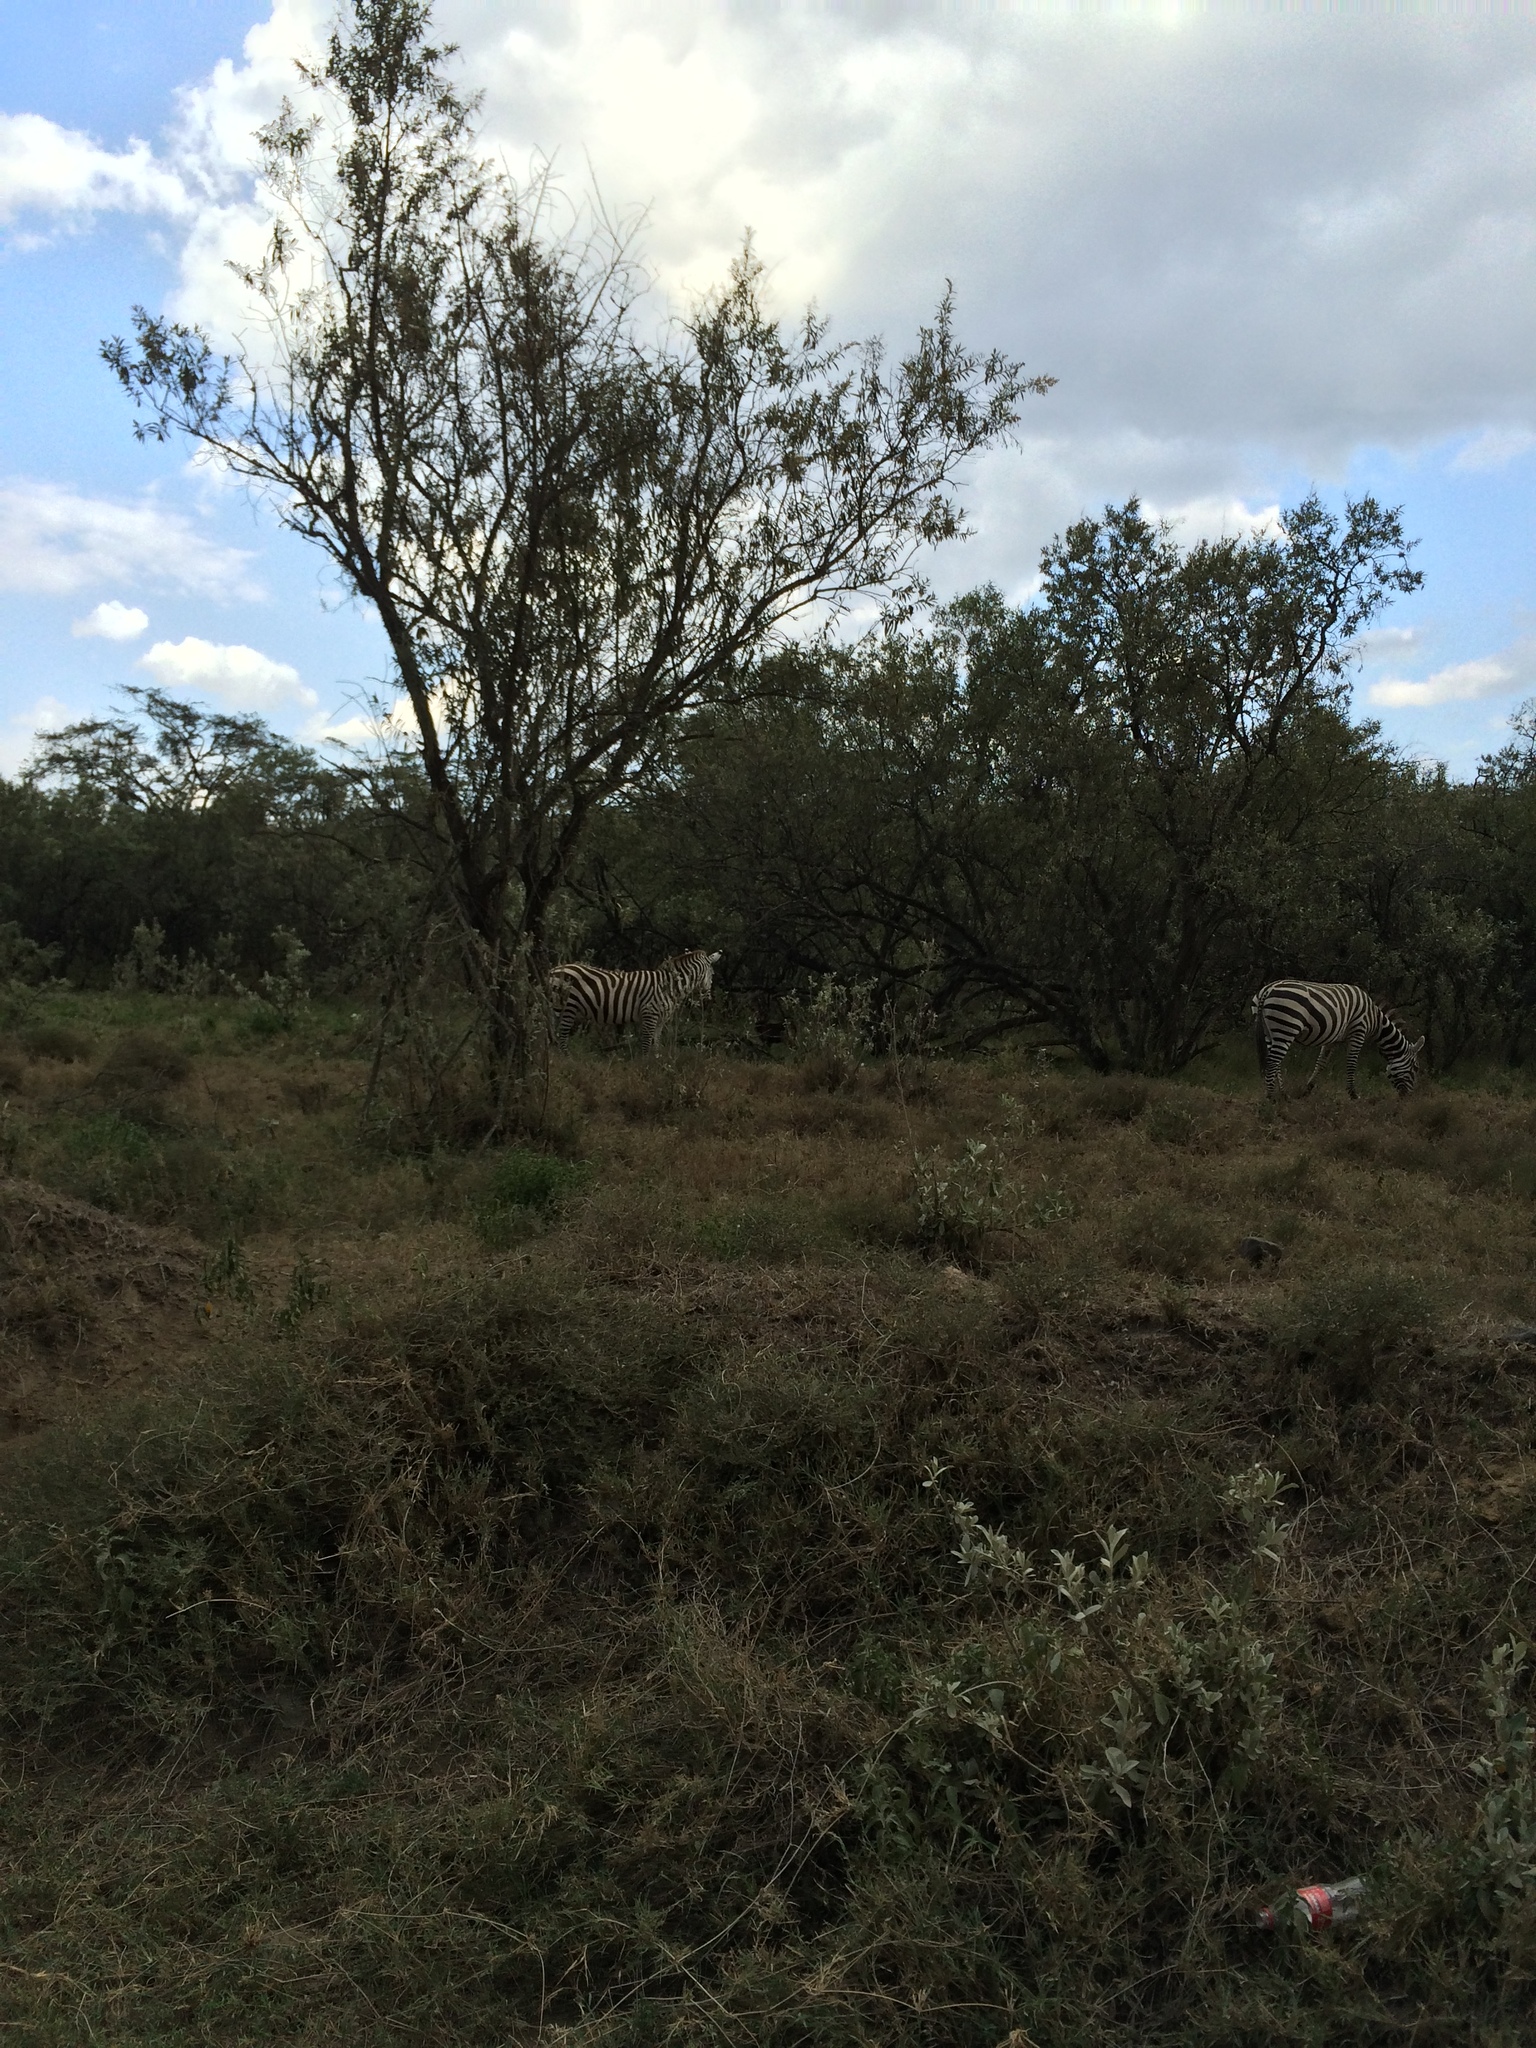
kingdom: Animalia
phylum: Chordata
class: Mammalia
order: Perissodactyla
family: Equidae
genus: Equus
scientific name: Equus quagga
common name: Plains zebra
